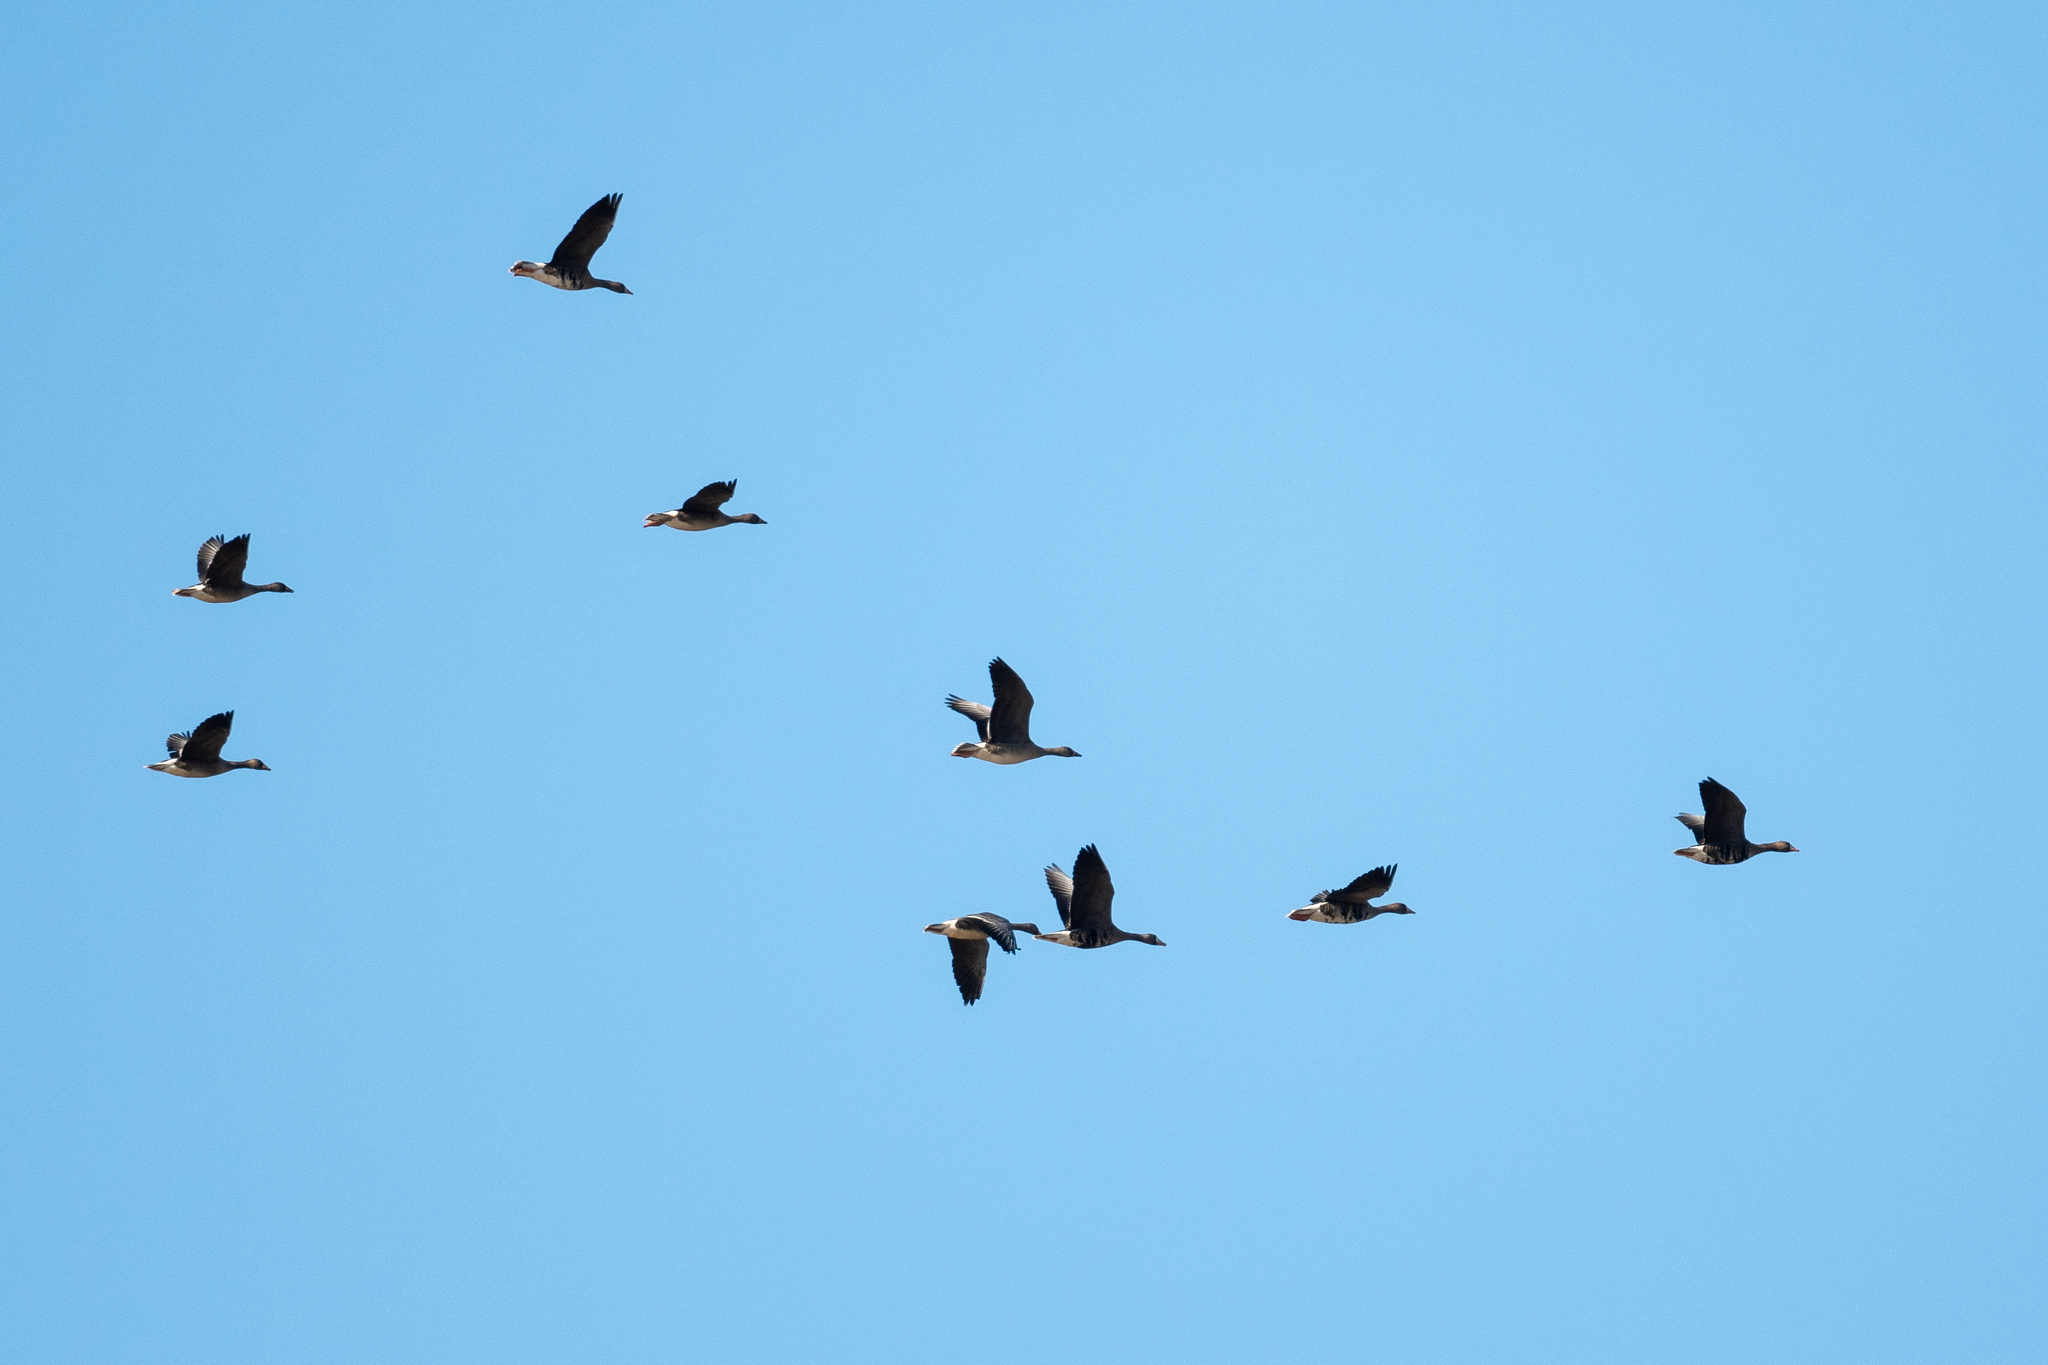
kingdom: Animalia
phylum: Chordata
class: Aves
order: Anseriformes
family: Anatidae
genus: Anser
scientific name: Anser albifrons
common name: Greater white-fronted goose
